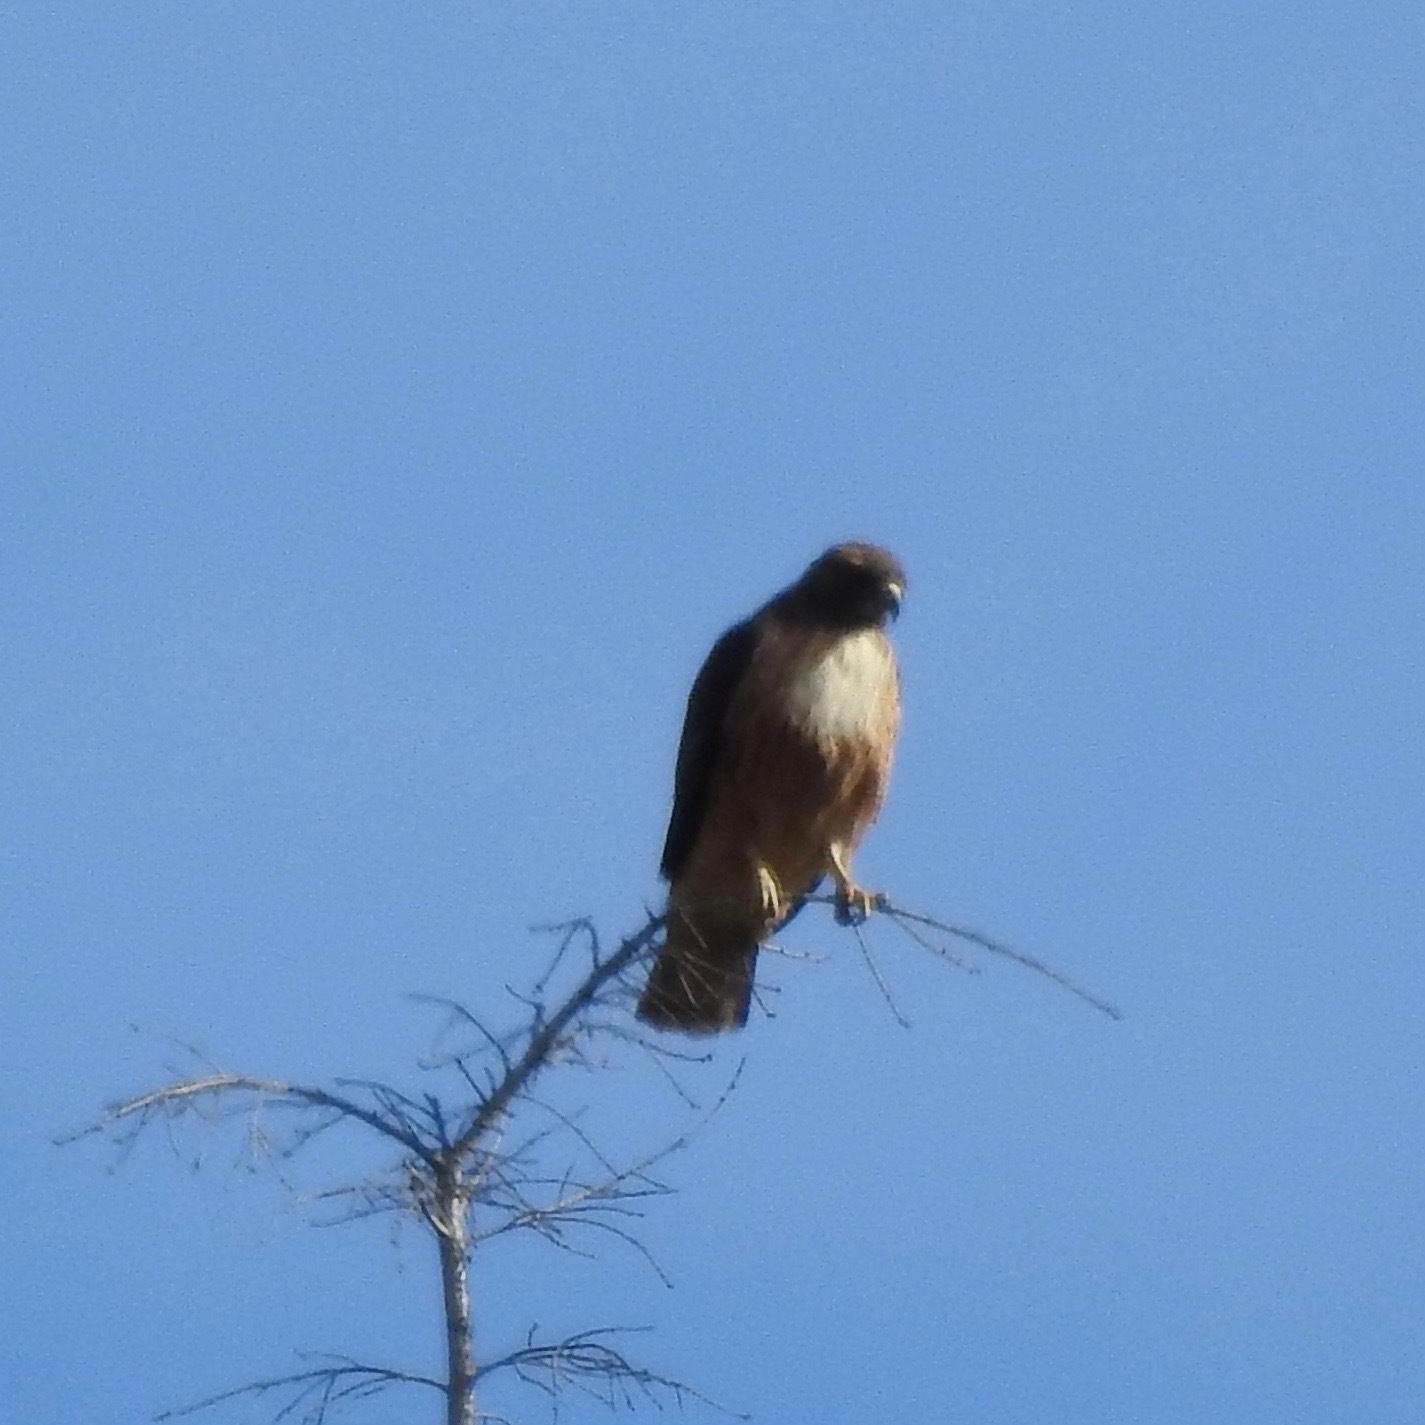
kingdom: Animalia
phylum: Chordata
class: Aves
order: Accipitriformes
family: Accipitridae
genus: Buteo
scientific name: Buteo jamaicensis
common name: Red-tailed hawk
